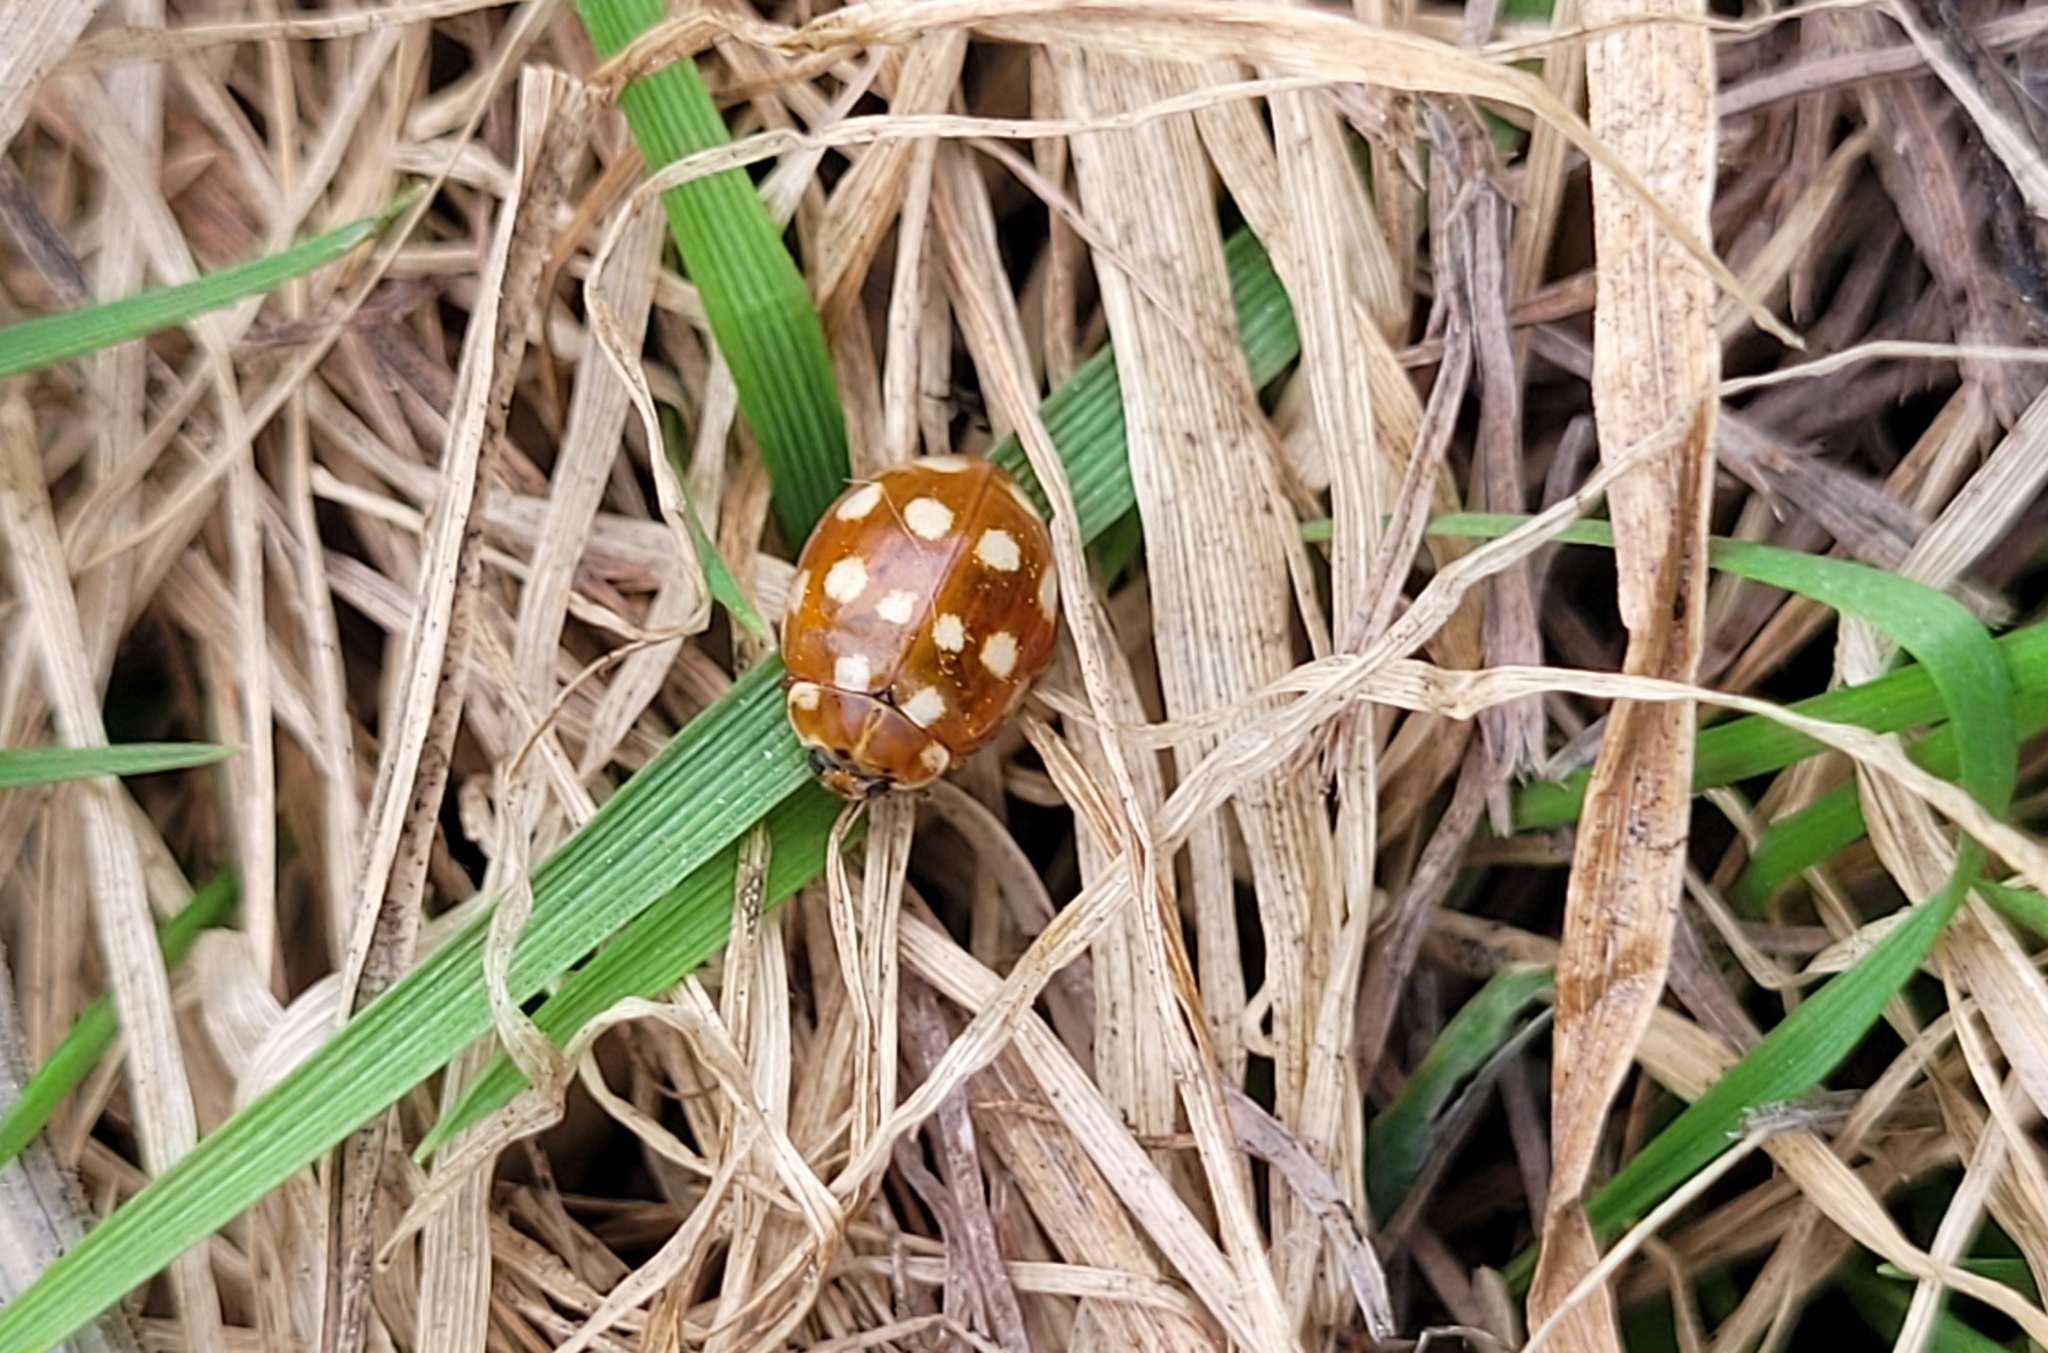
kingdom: Animalia
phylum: Arthropoda
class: Insecta
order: Coleoptera
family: Coccinellidae
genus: Calvia
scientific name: Calvia quatuordecimguttata
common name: Cream-spot ladybird
